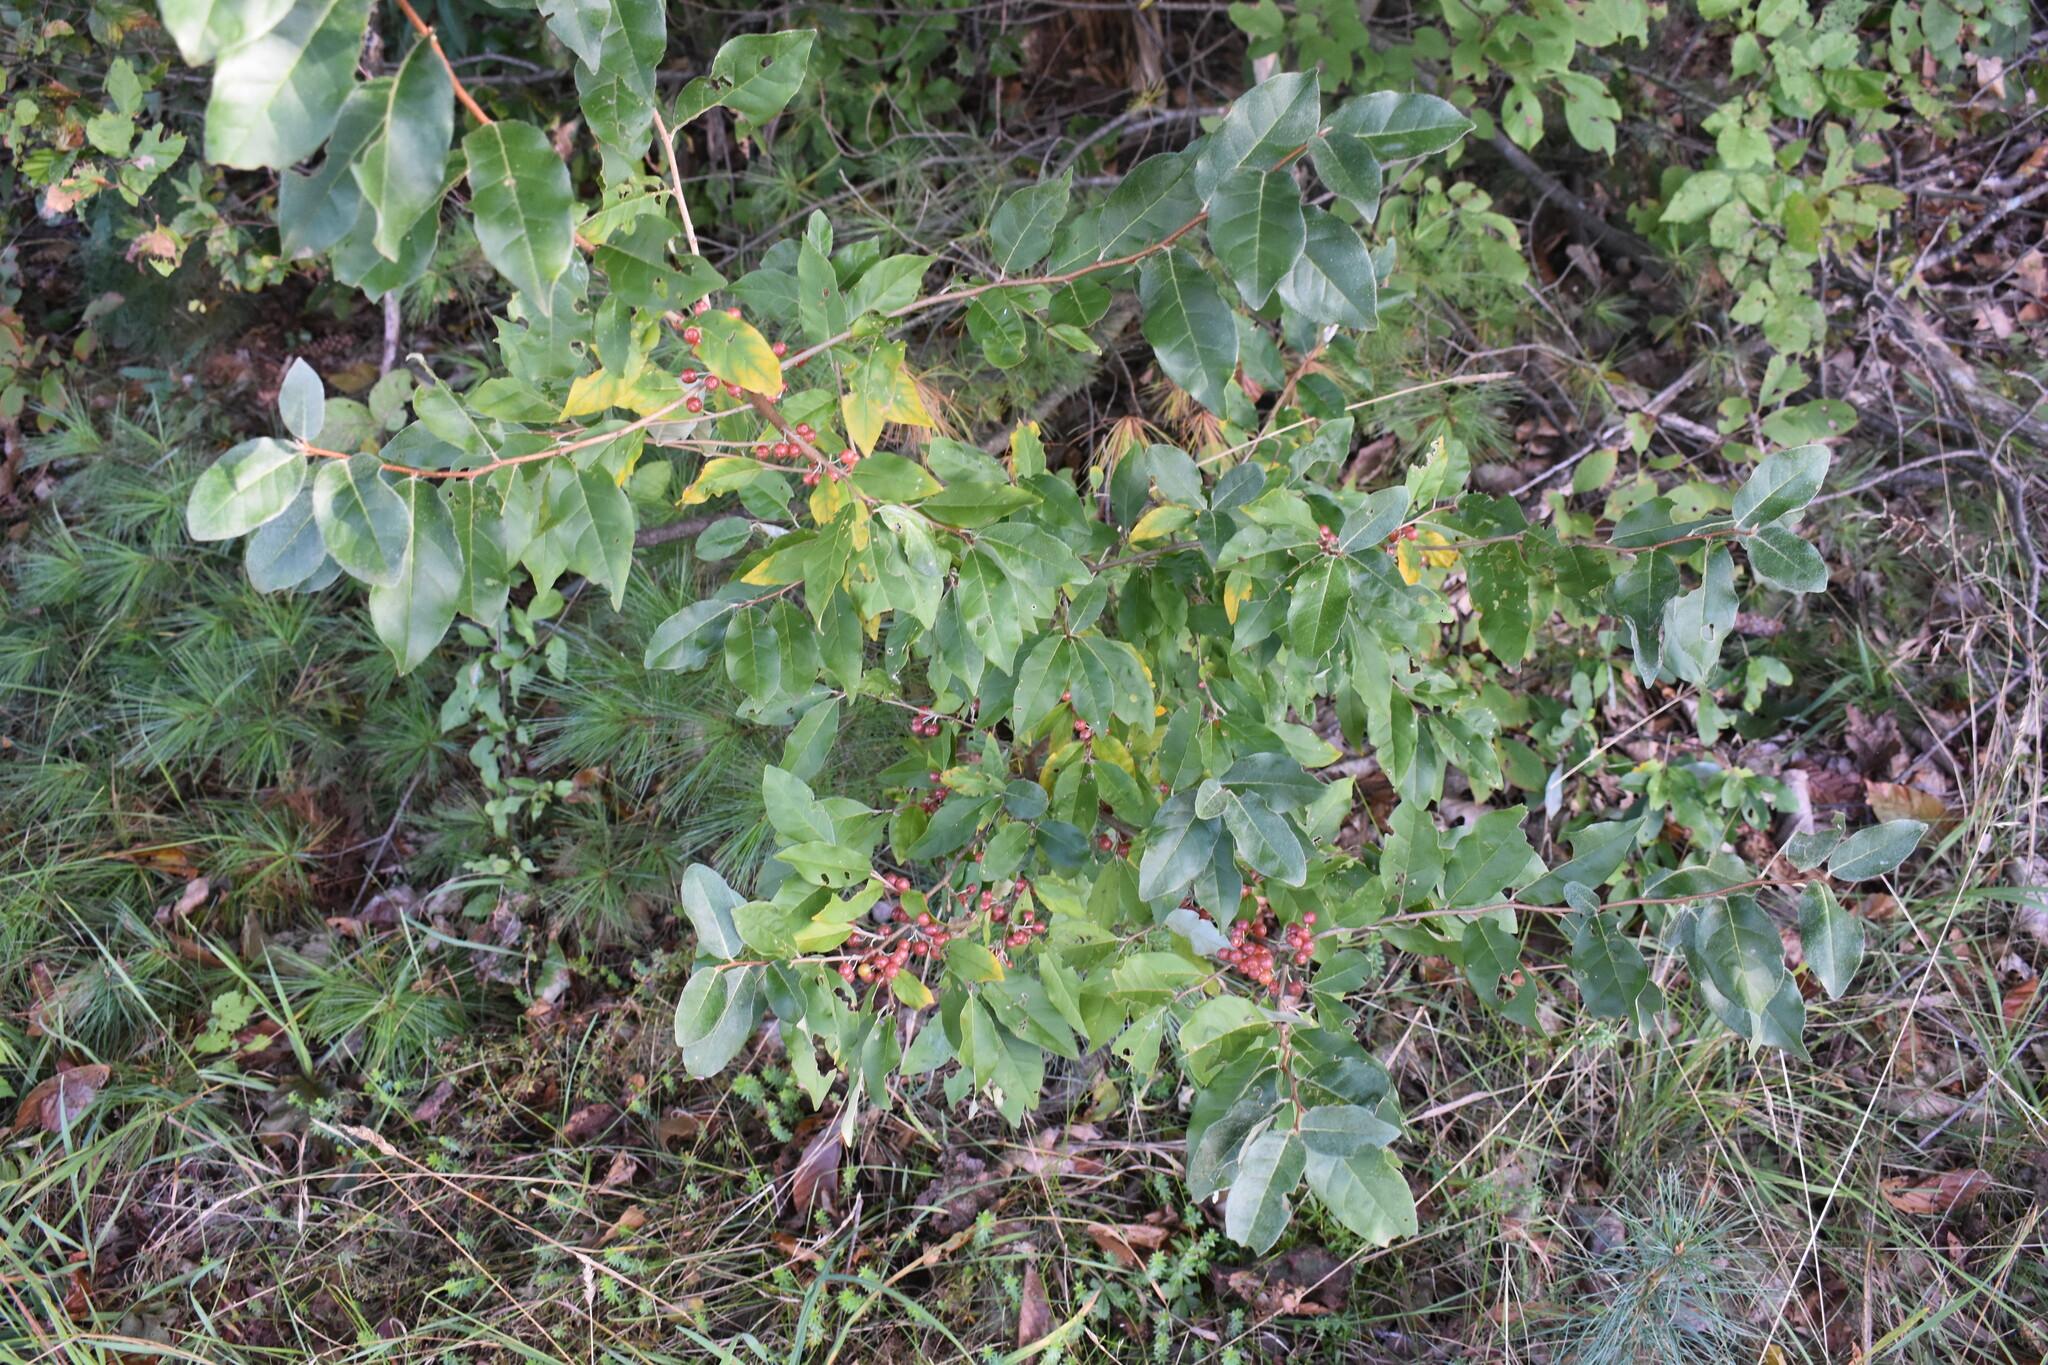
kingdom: Plantae
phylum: Tracheophyta
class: Magnoliopsida
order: Rosales
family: Elaeagnaceae
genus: Elaeagnus
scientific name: Elaeagnus umbellata
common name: Autumn olive
